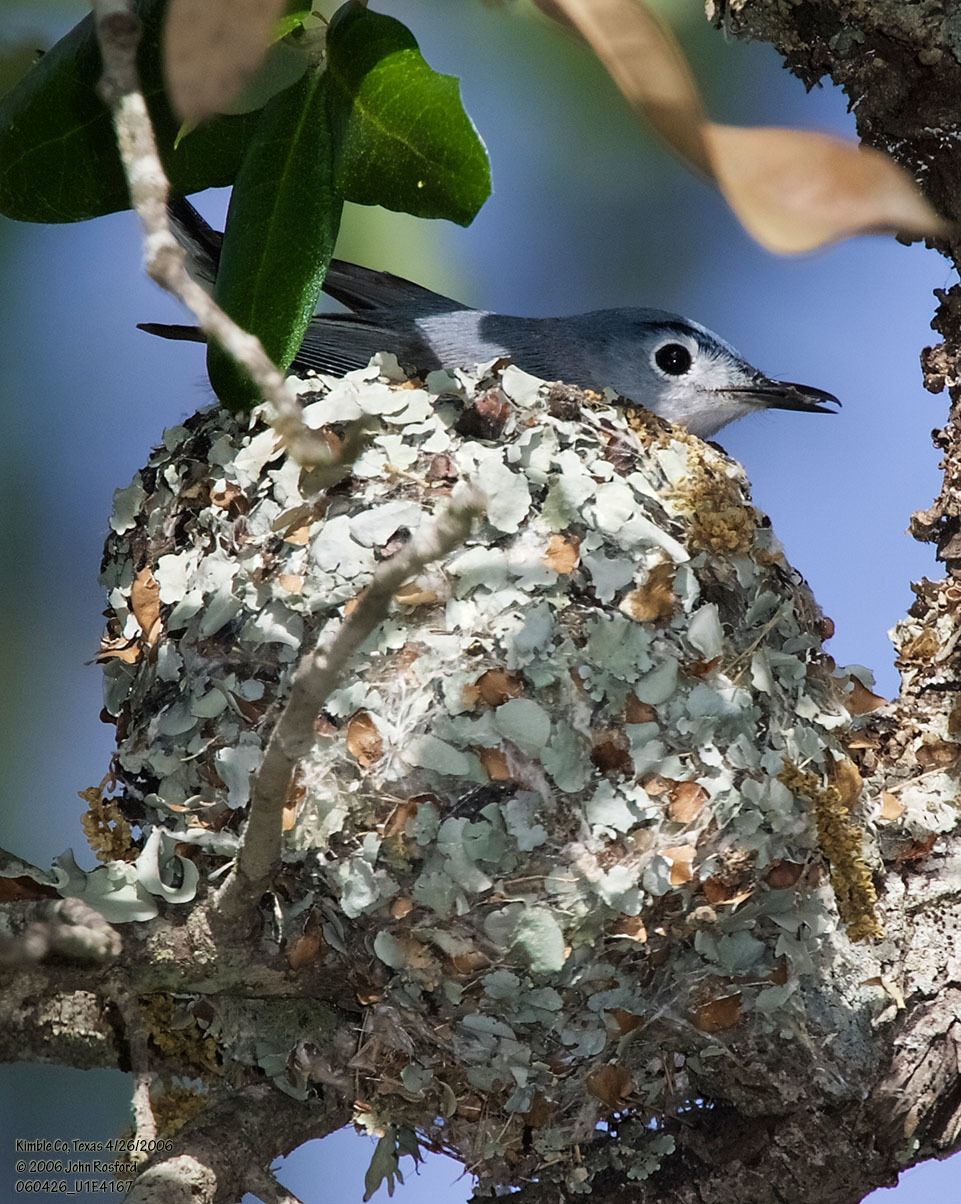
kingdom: Animalia
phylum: Chordata
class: Aves
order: Passeriformes
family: Polioptilidae
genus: Polioptila
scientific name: Polioptila caerulea
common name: Blue-gray gnatcatcher
